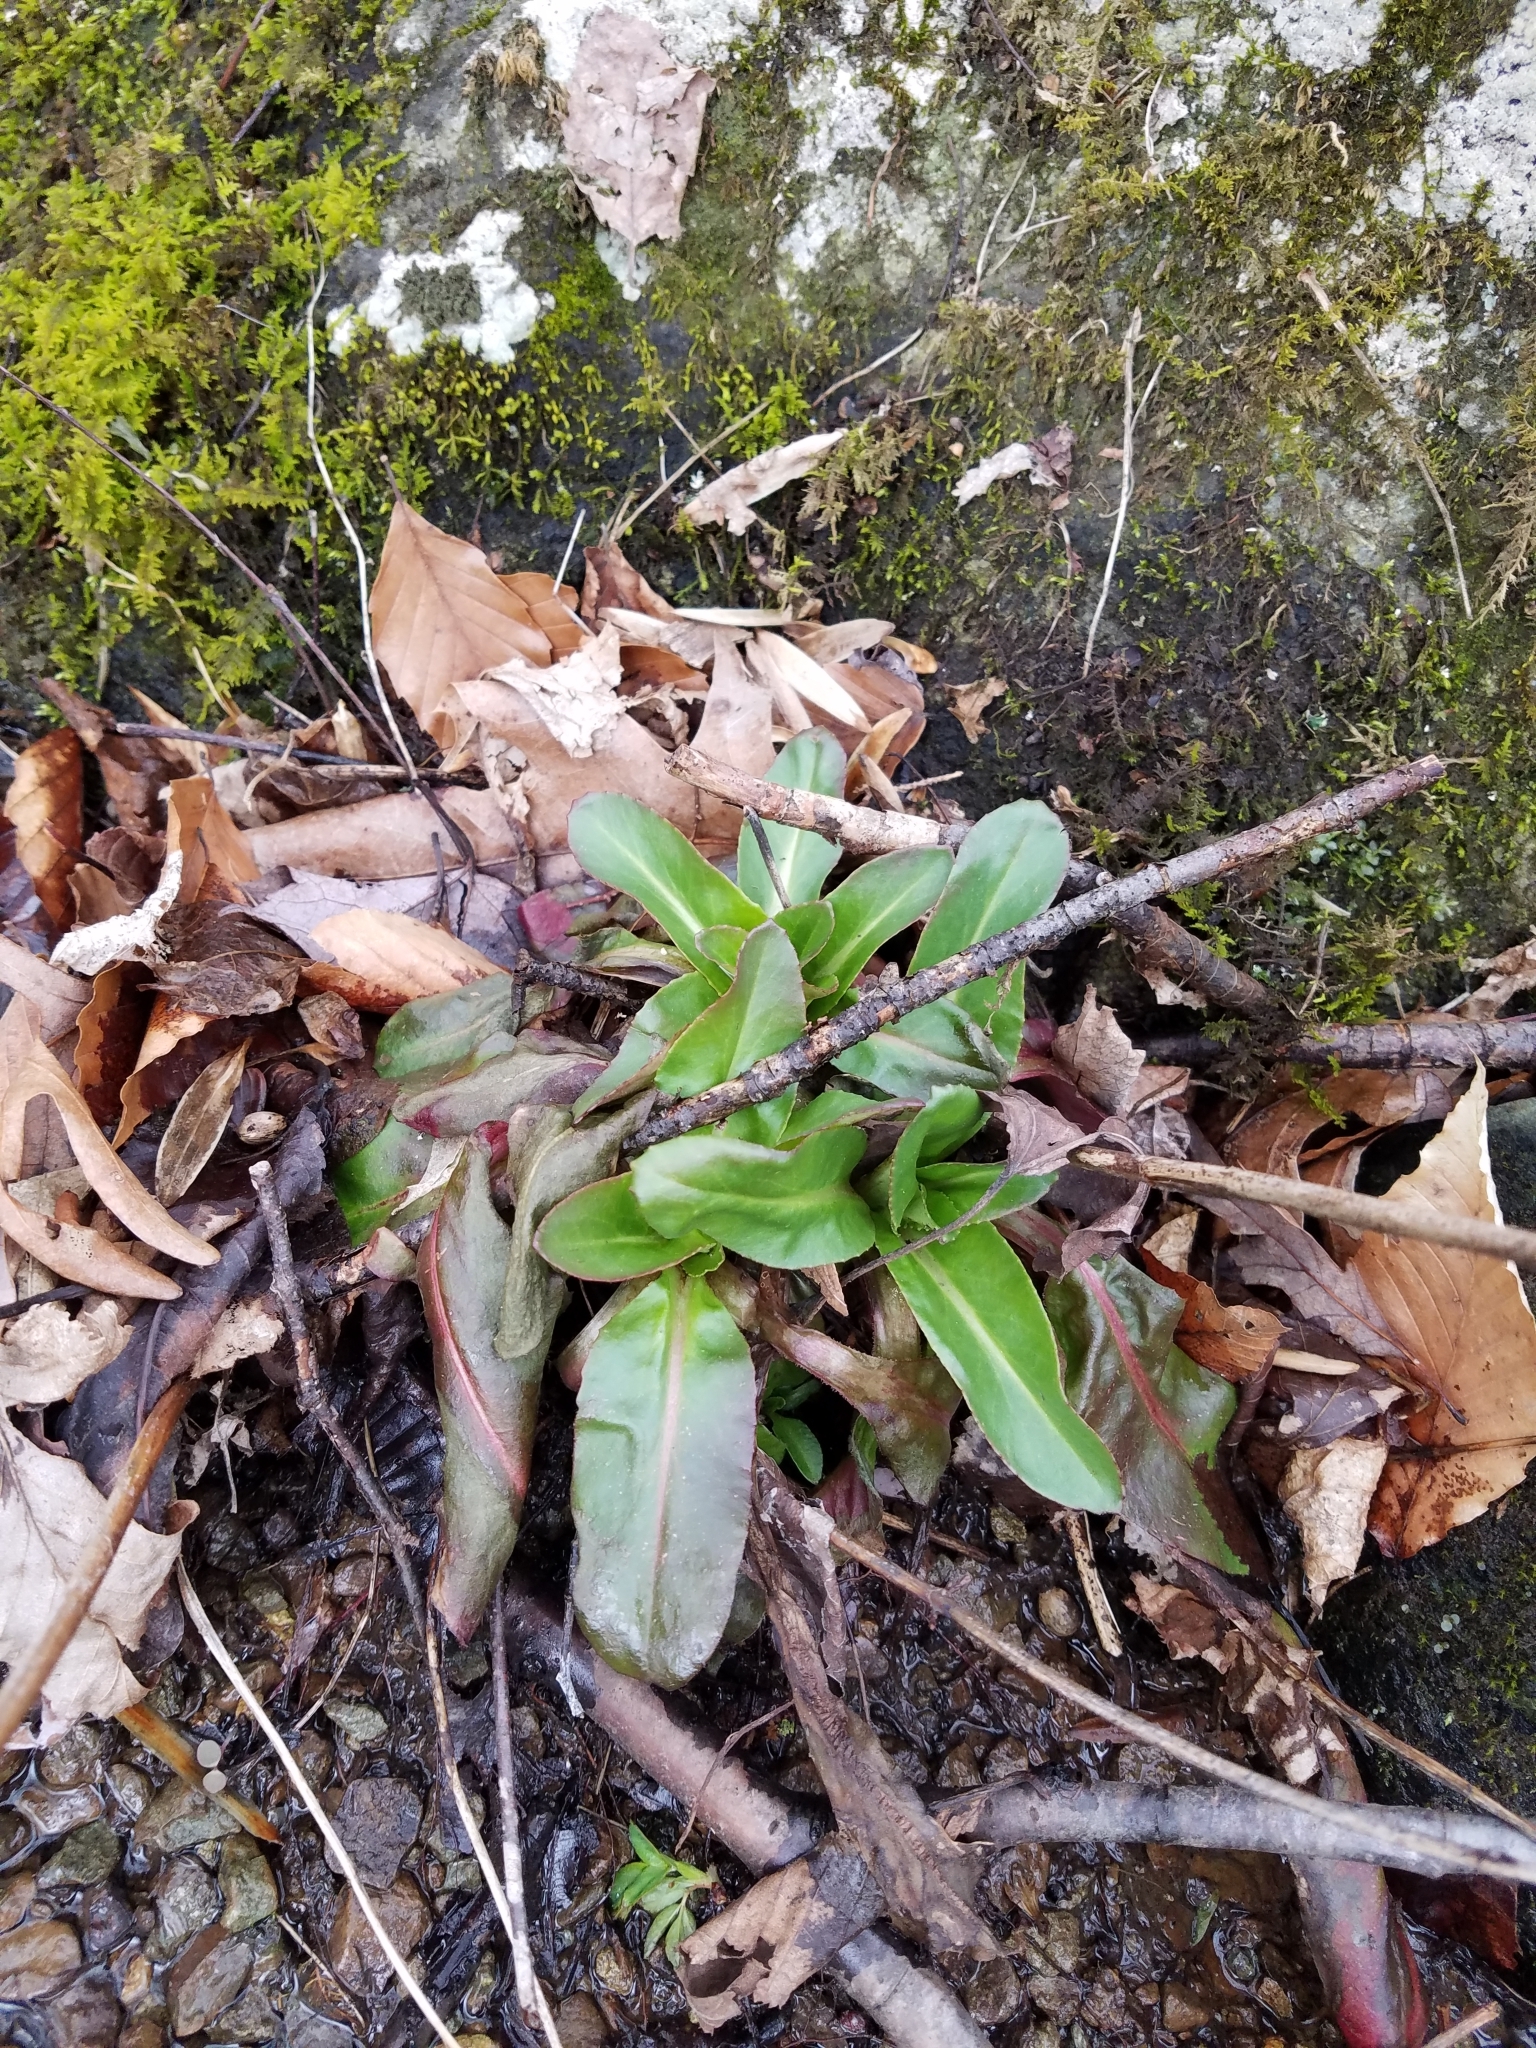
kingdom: Plantae
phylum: Tracheophyta
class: Magnoliopsida
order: Saxifragales
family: Saxifragaceae
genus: Micranthes
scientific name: Micranthes pensylvanica
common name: Marsh saxifrage
